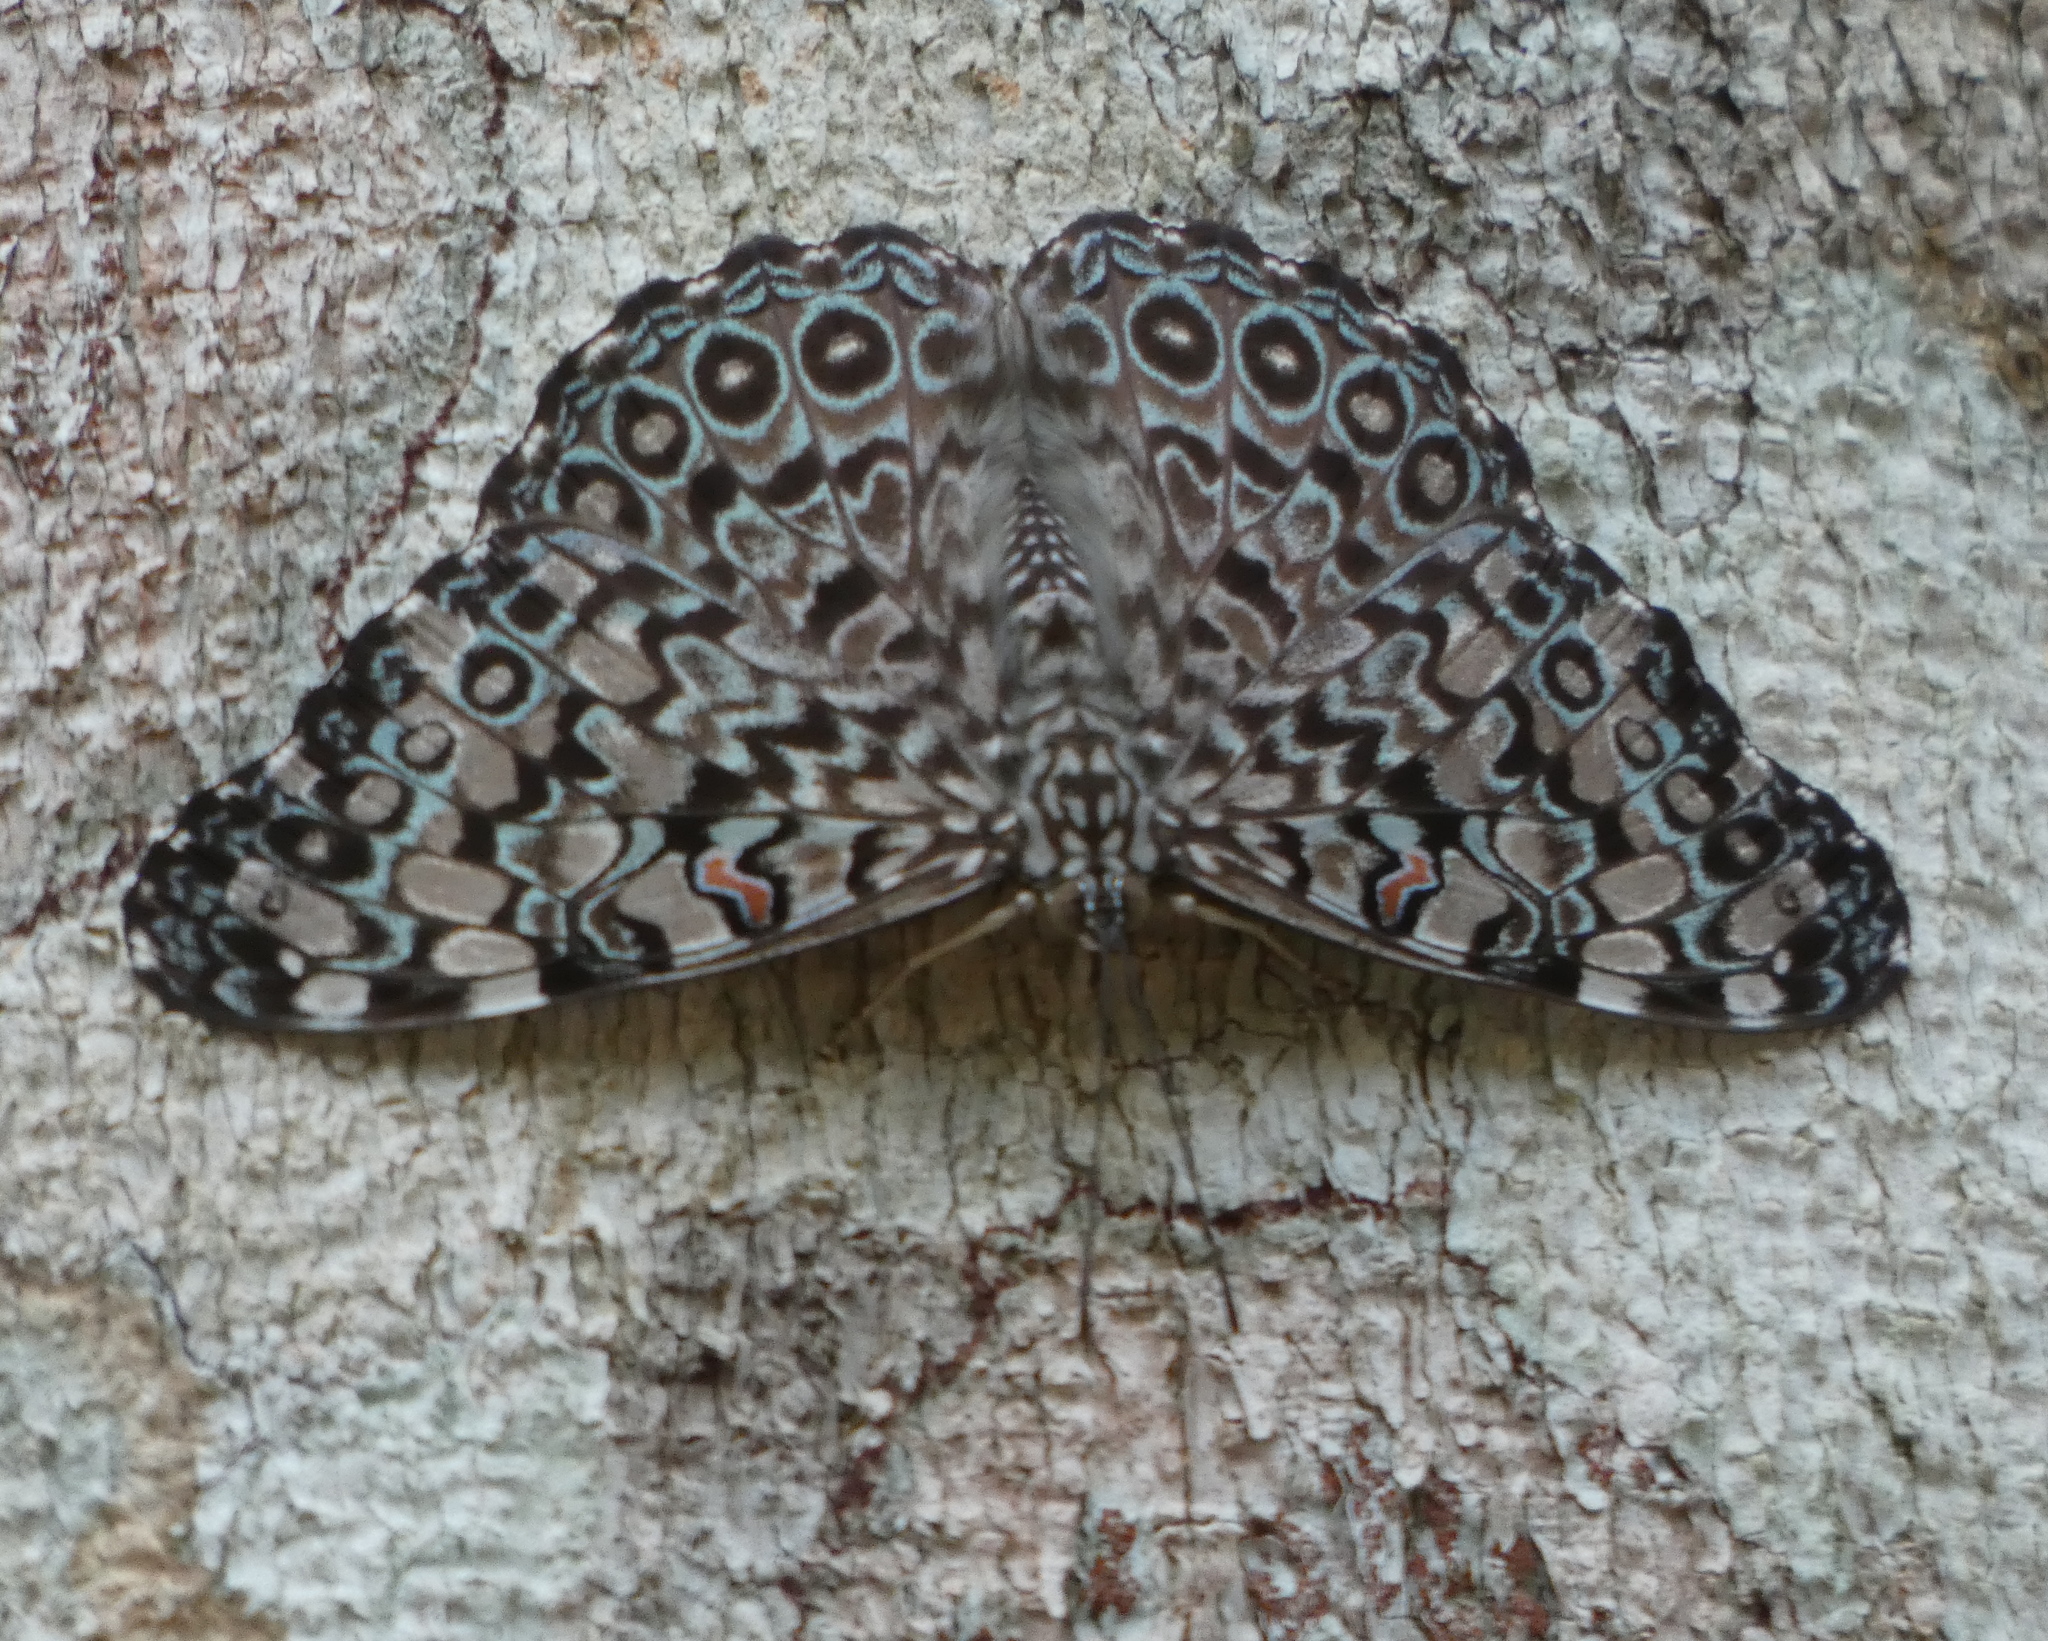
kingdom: Animalia
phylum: Arthropoda
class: Insecta
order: Lepidoptera
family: Nymphalidae
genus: Hamadryas
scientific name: Hamadryas feronia
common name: Variable cracker
